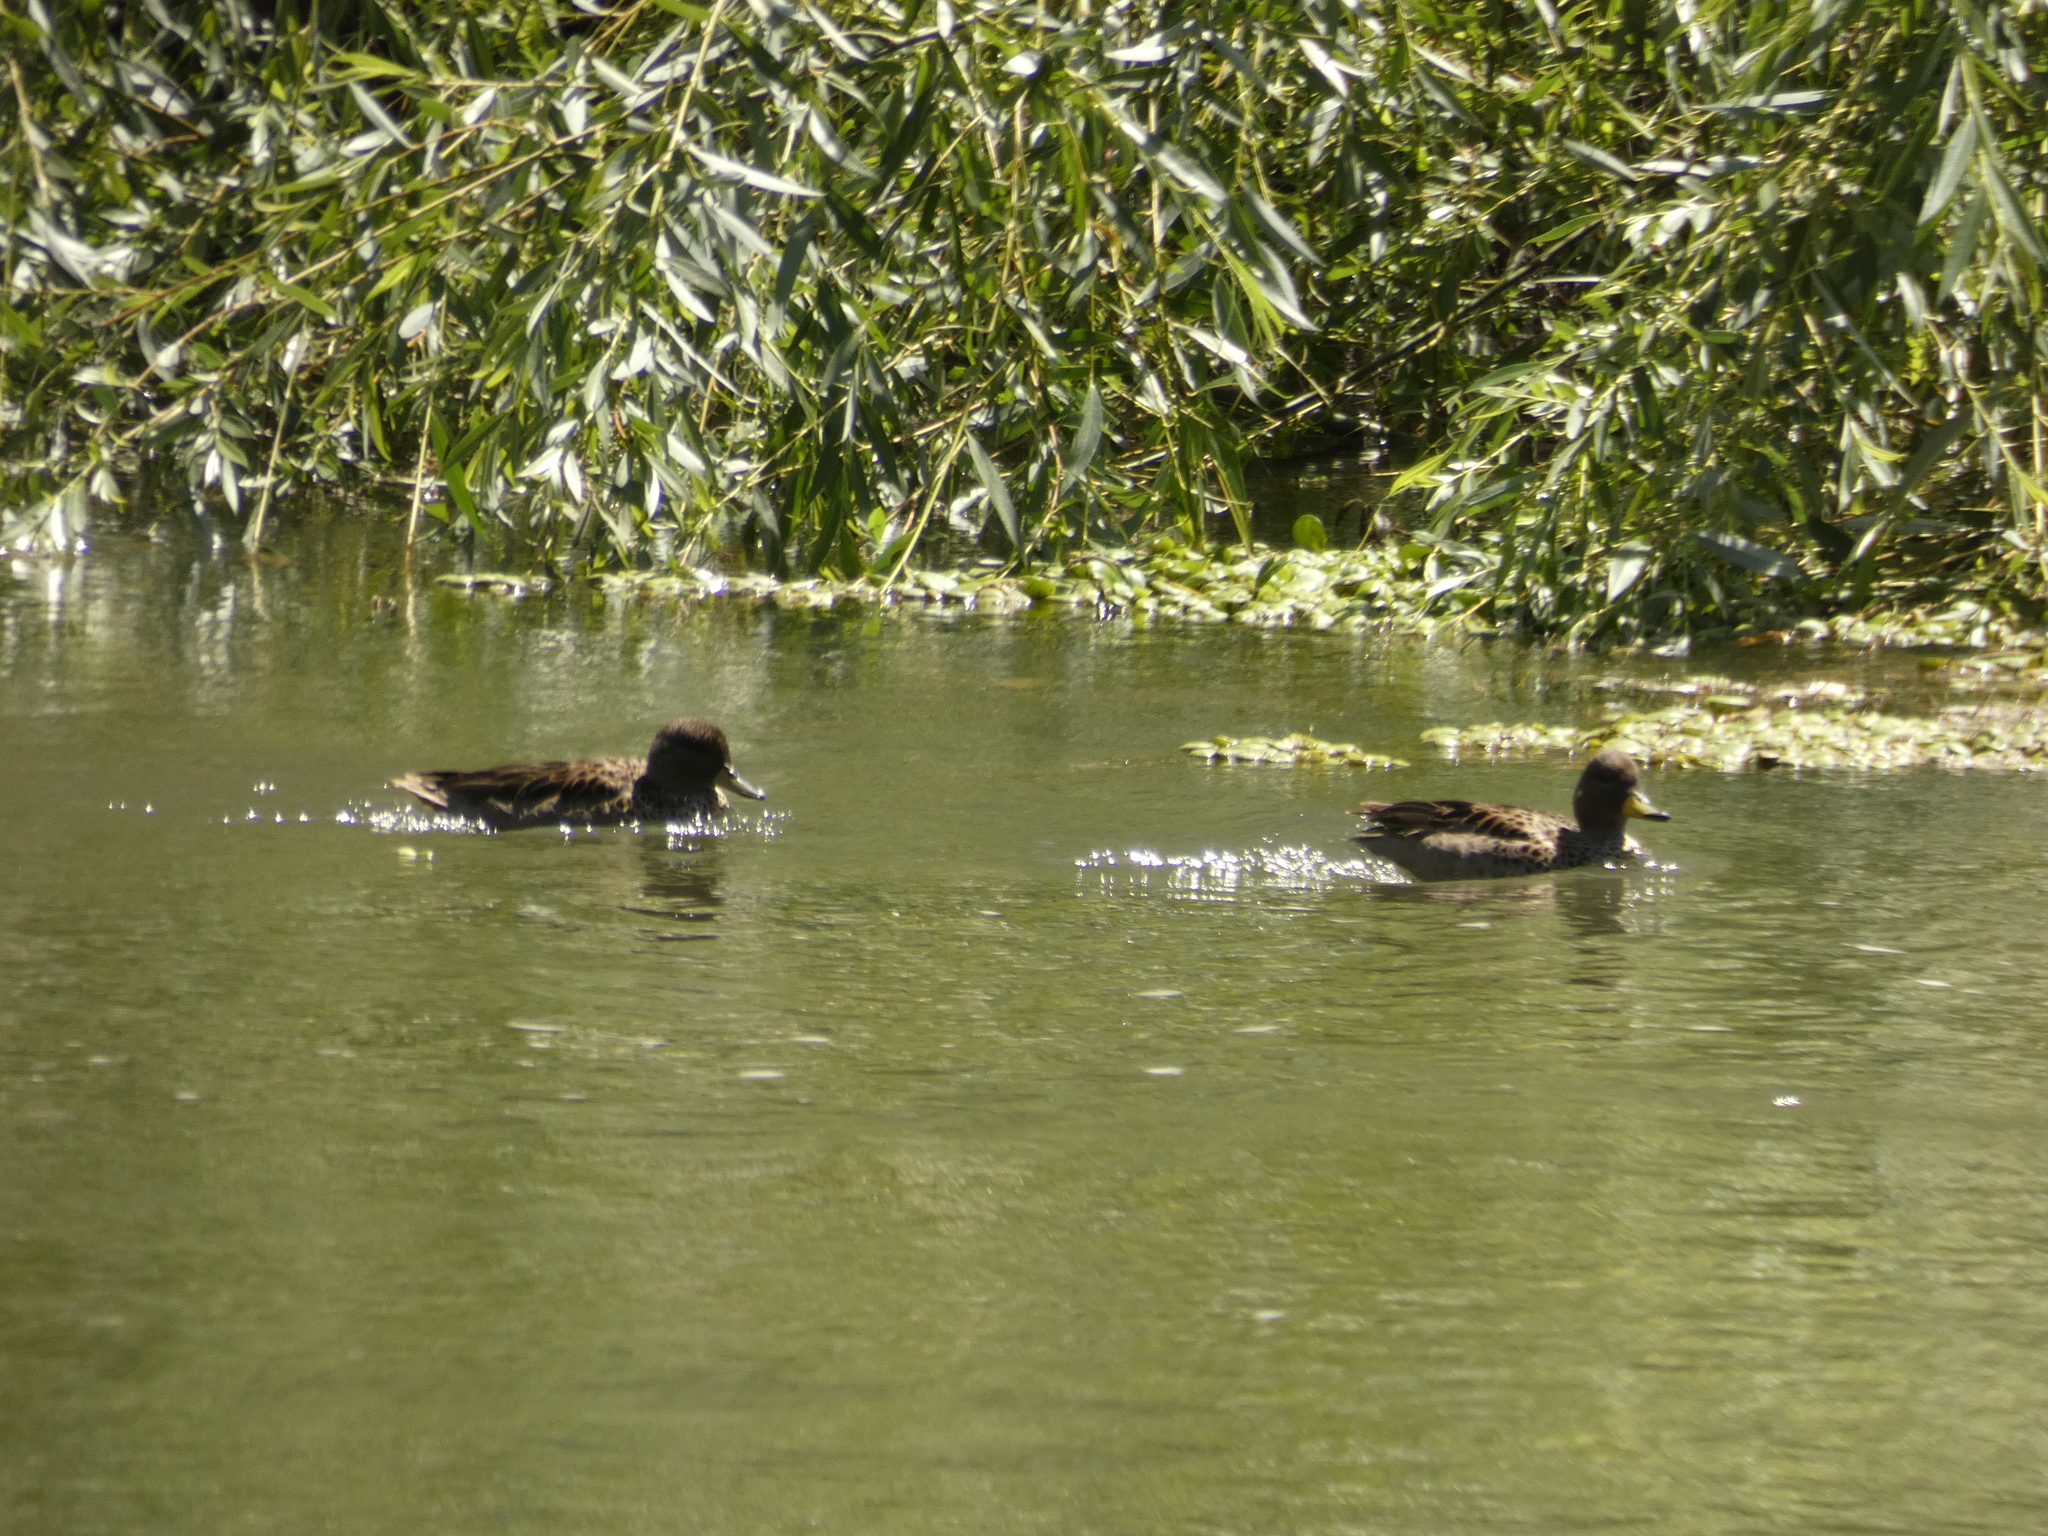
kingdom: Animalia
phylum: Chordata
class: Aves
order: Anseriformes
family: Anatidae
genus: Anas
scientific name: Anas flavirostris
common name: Yellow-billed teal
